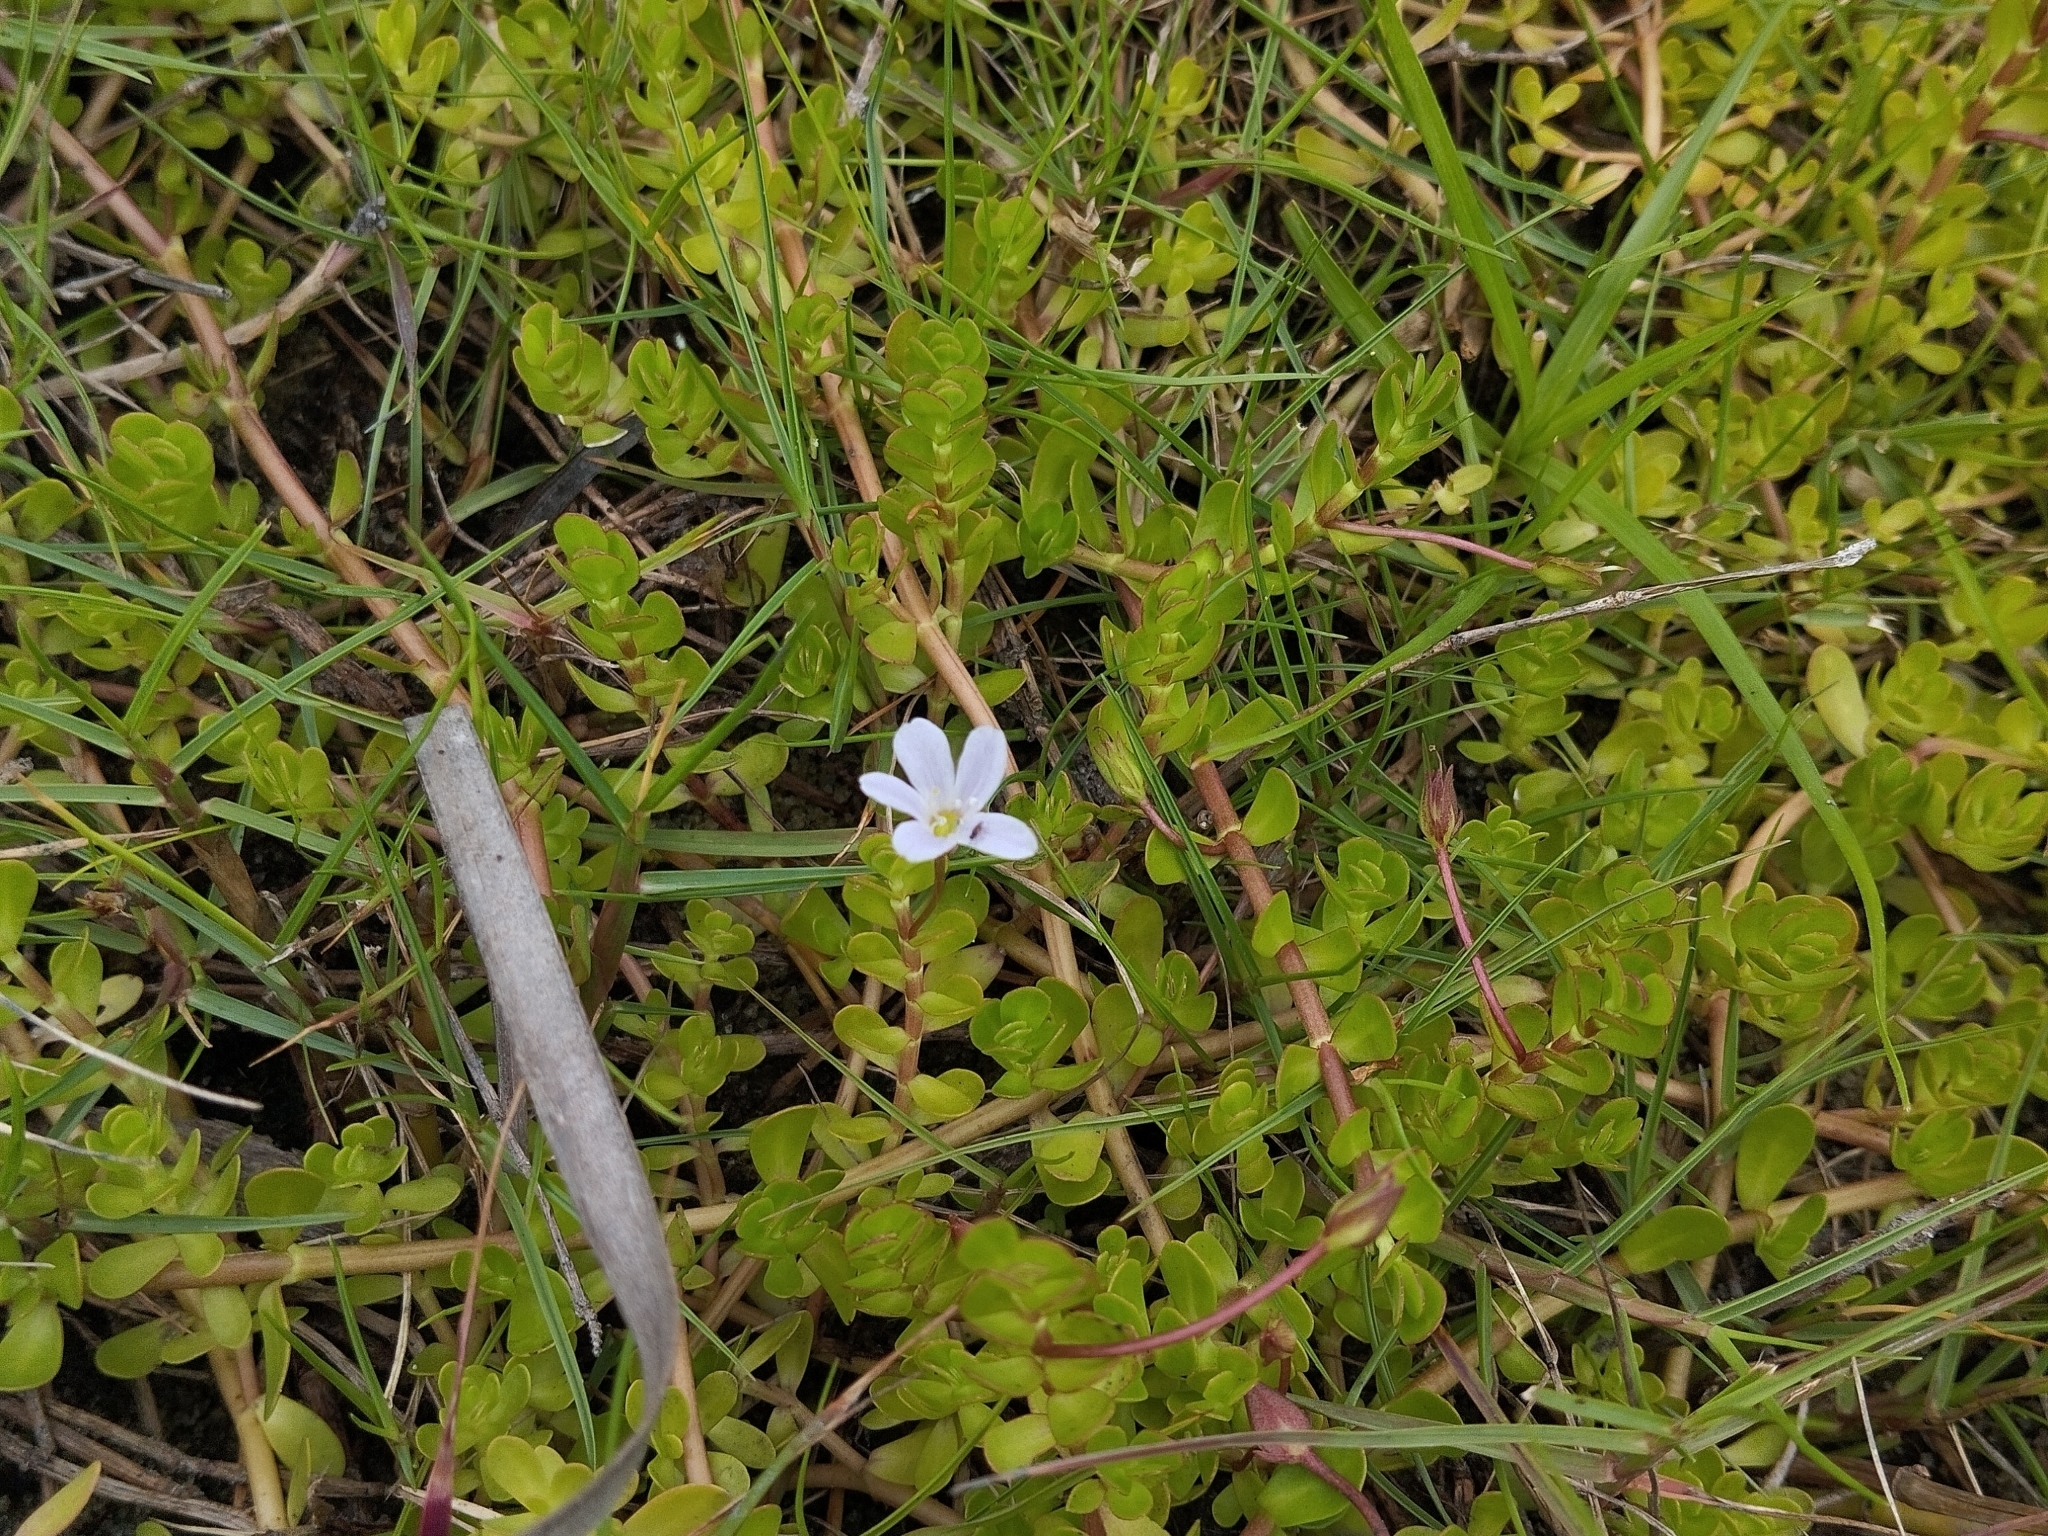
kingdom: Plantae
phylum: Tracheophyta
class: Magnoliopsida
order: Lamiales
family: Plantaginaceae
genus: Bacopa
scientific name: Bacopa monnieri
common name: Indian-pennywort
